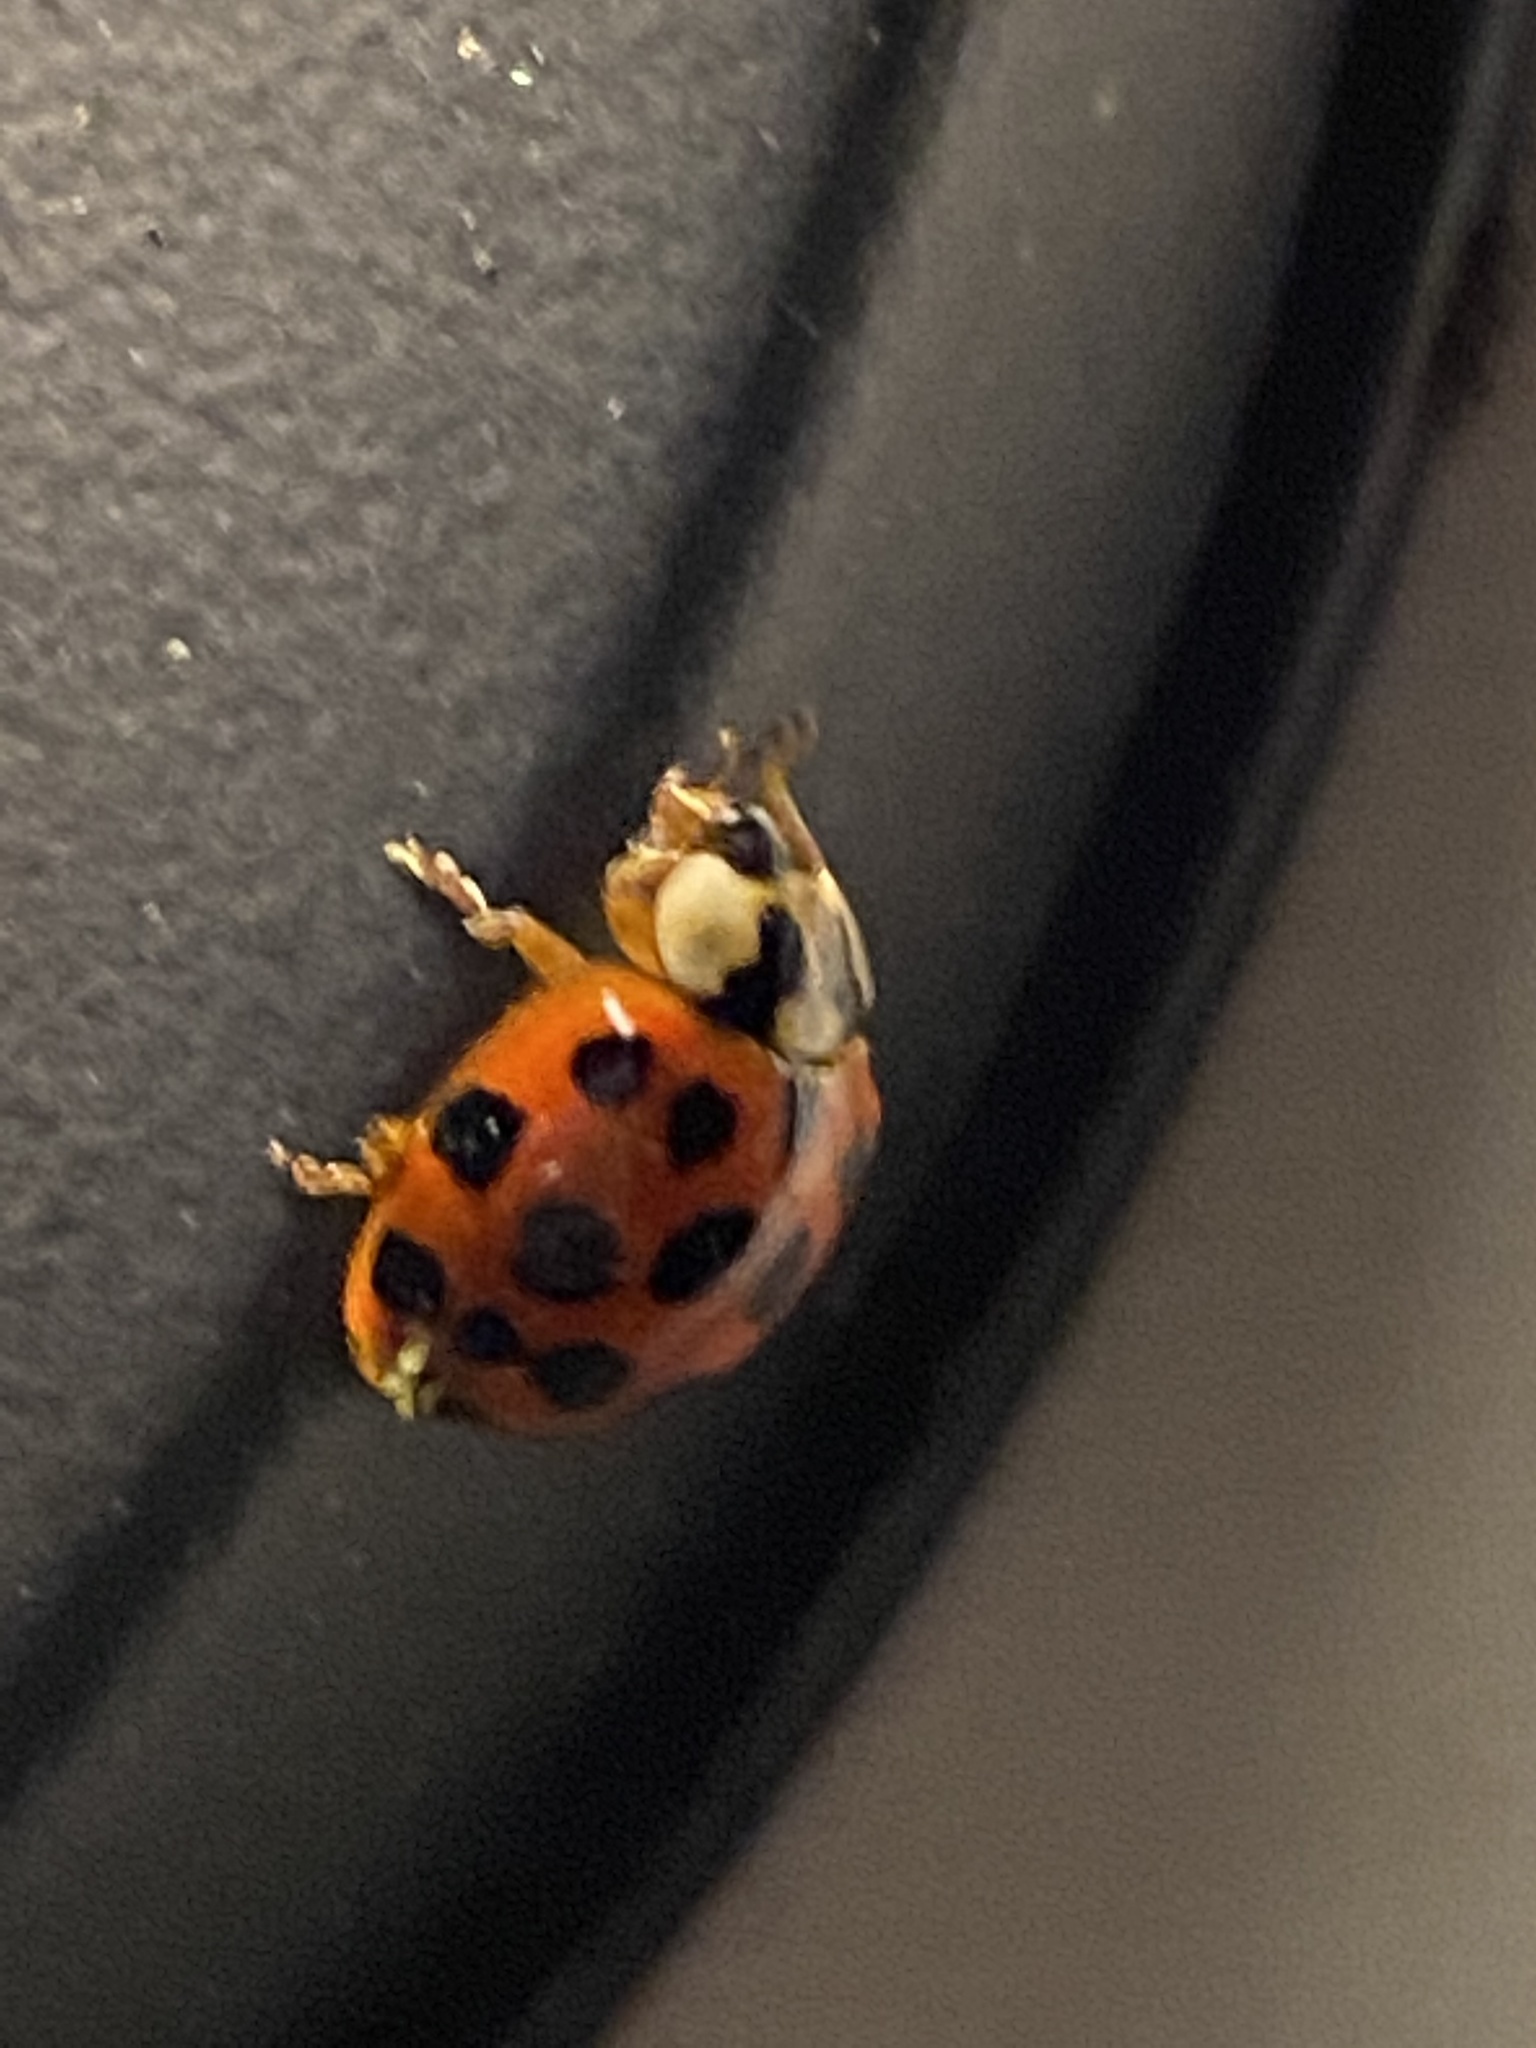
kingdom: Animalia
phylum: Arthropoda
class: Insecta
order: Coleoptera
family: Coccinellidae
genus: Harmonia
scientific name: Harmonia axyridis
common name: Harlequin ladybird
